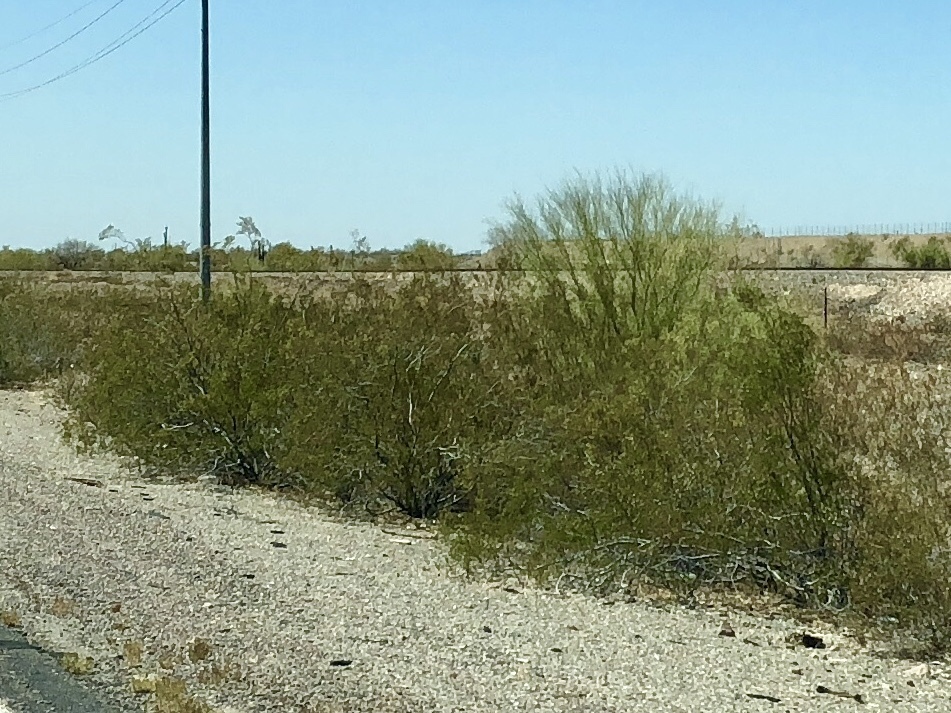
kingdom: Plantae
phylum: Tracheophyta
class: Magnoliopsida
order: Zygophyllales
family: Zygophyllaceae
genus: Larrea
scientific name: Larrea tridentata
